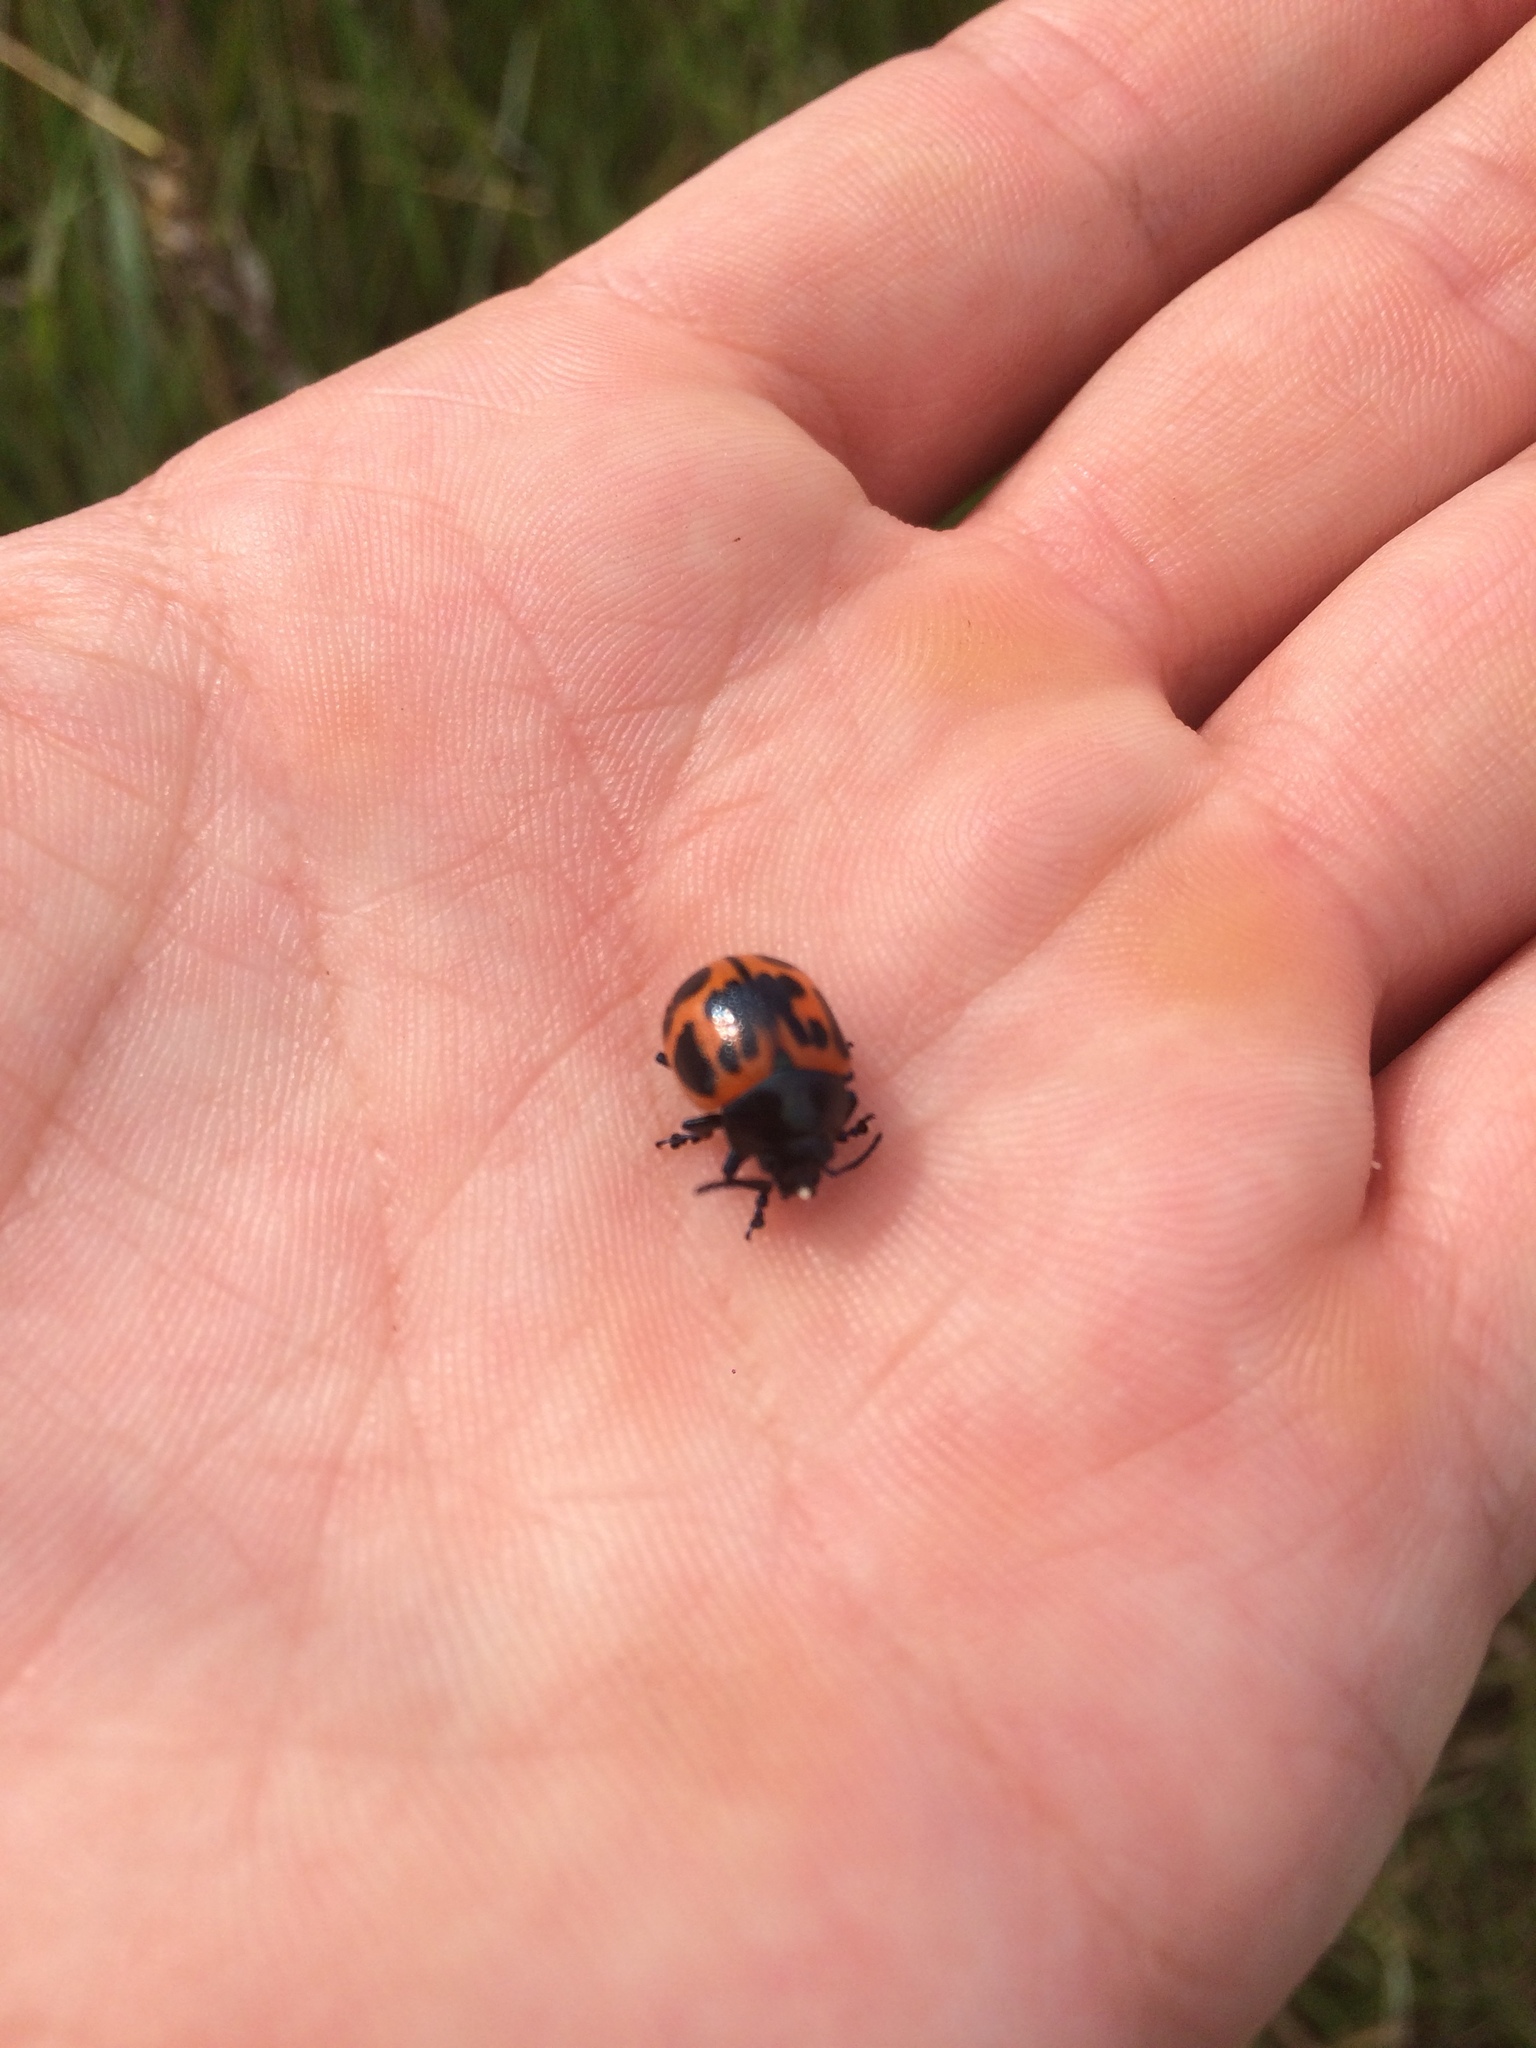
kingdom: Animalia
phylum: Arthropoda
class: Insecta
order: Coleoptera
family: Chrysomelidae
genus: Labidomera
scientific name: Labidomera clivicollis
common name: Swamp milkweed leaf beetle
